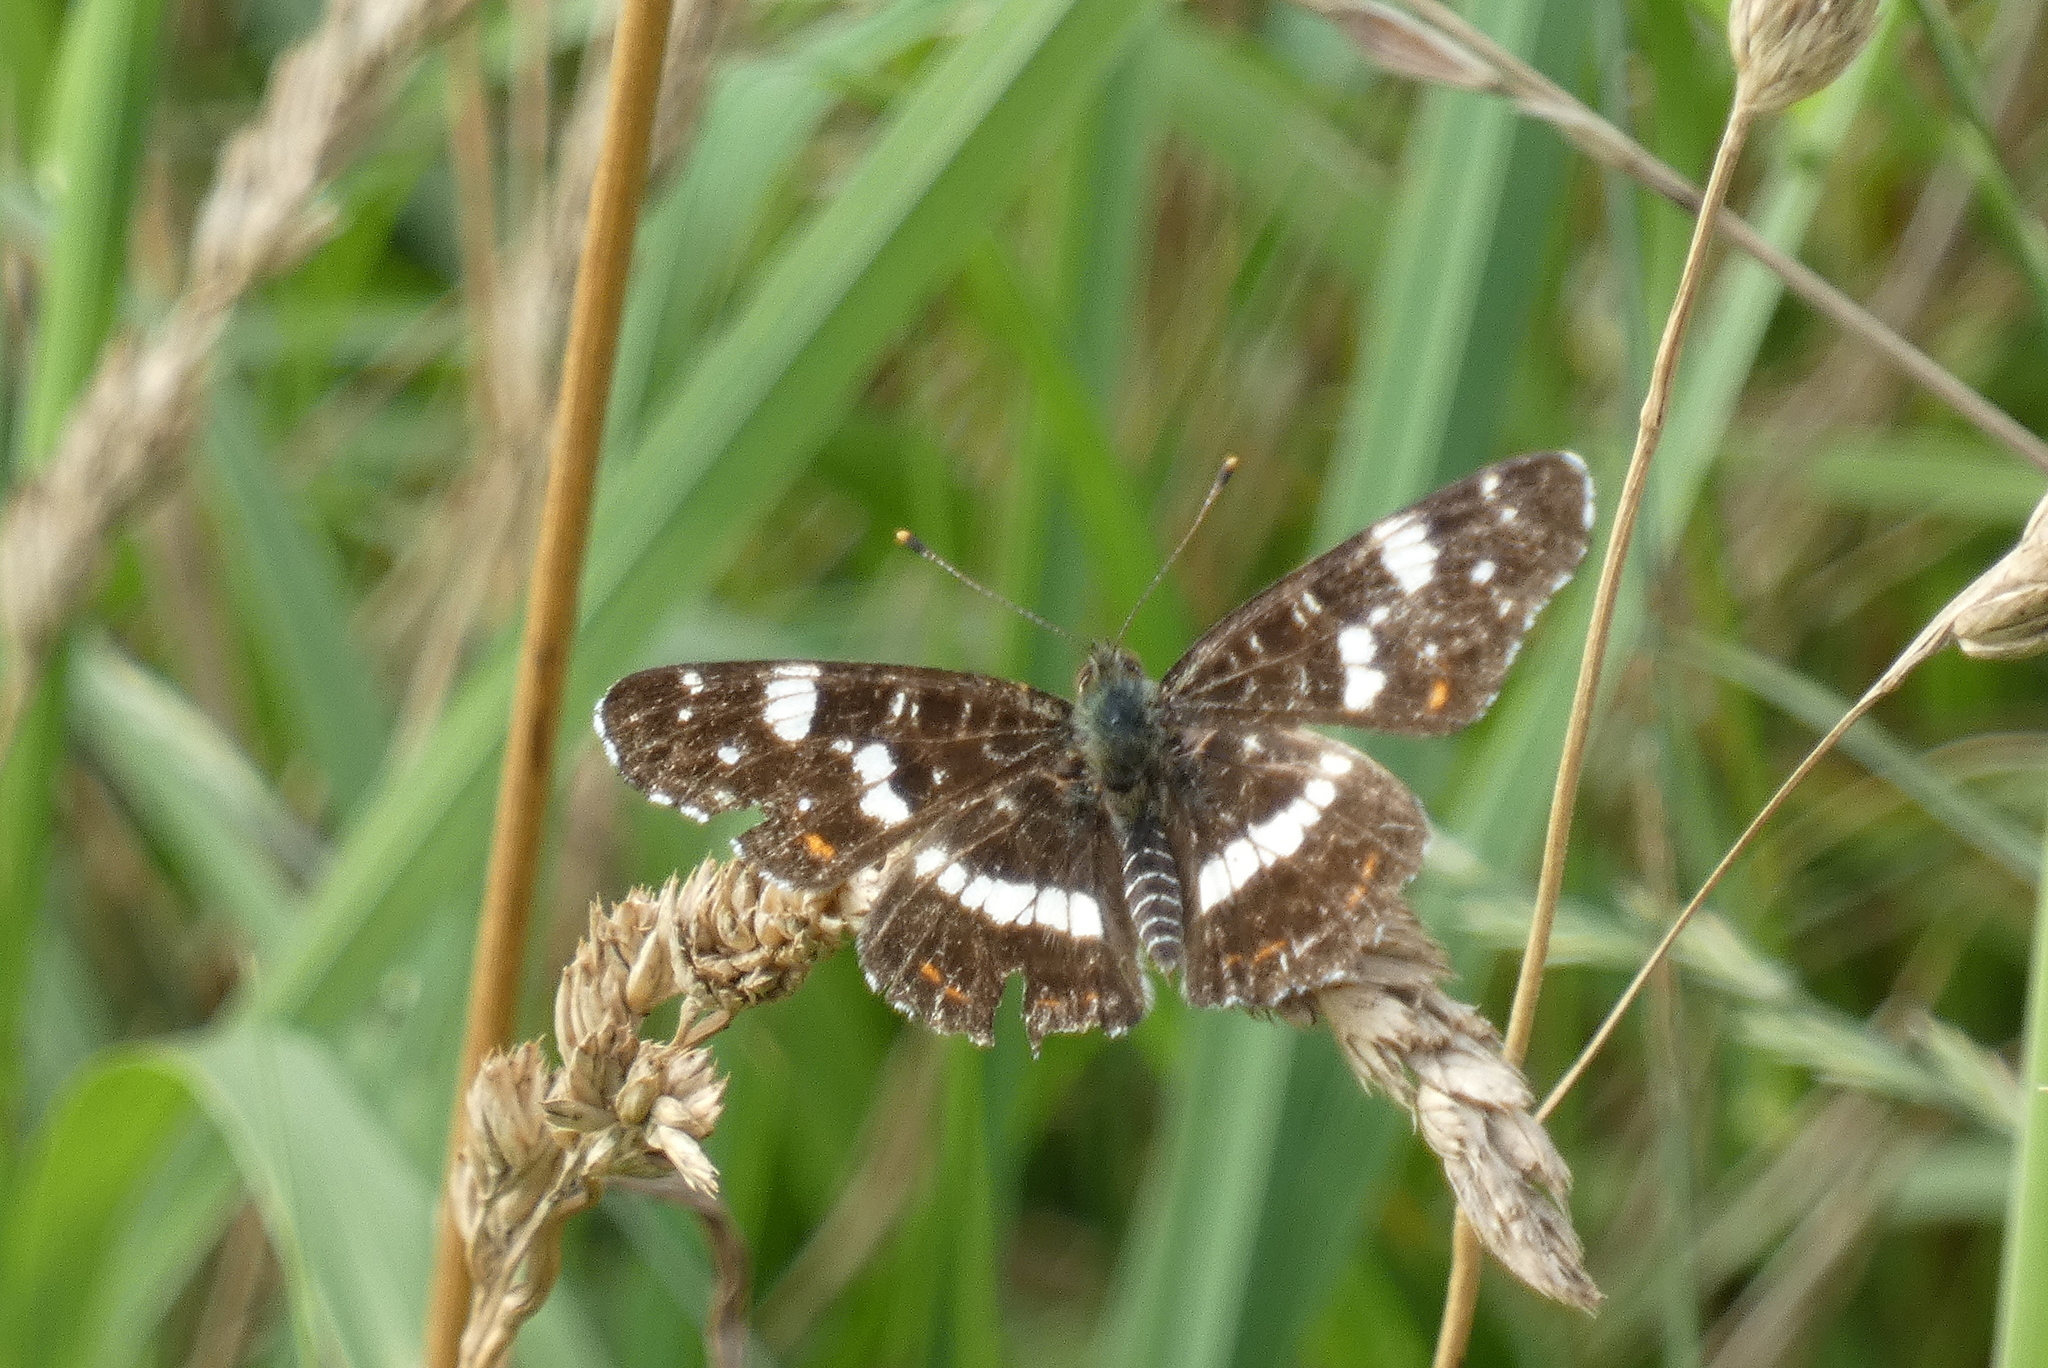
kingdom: Animalia
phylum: Arthropoda
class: Insecta
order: Lepidoptera
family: Nymphalidae
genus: Araschnia
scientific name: Araschnia levana
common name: Map butterfly
